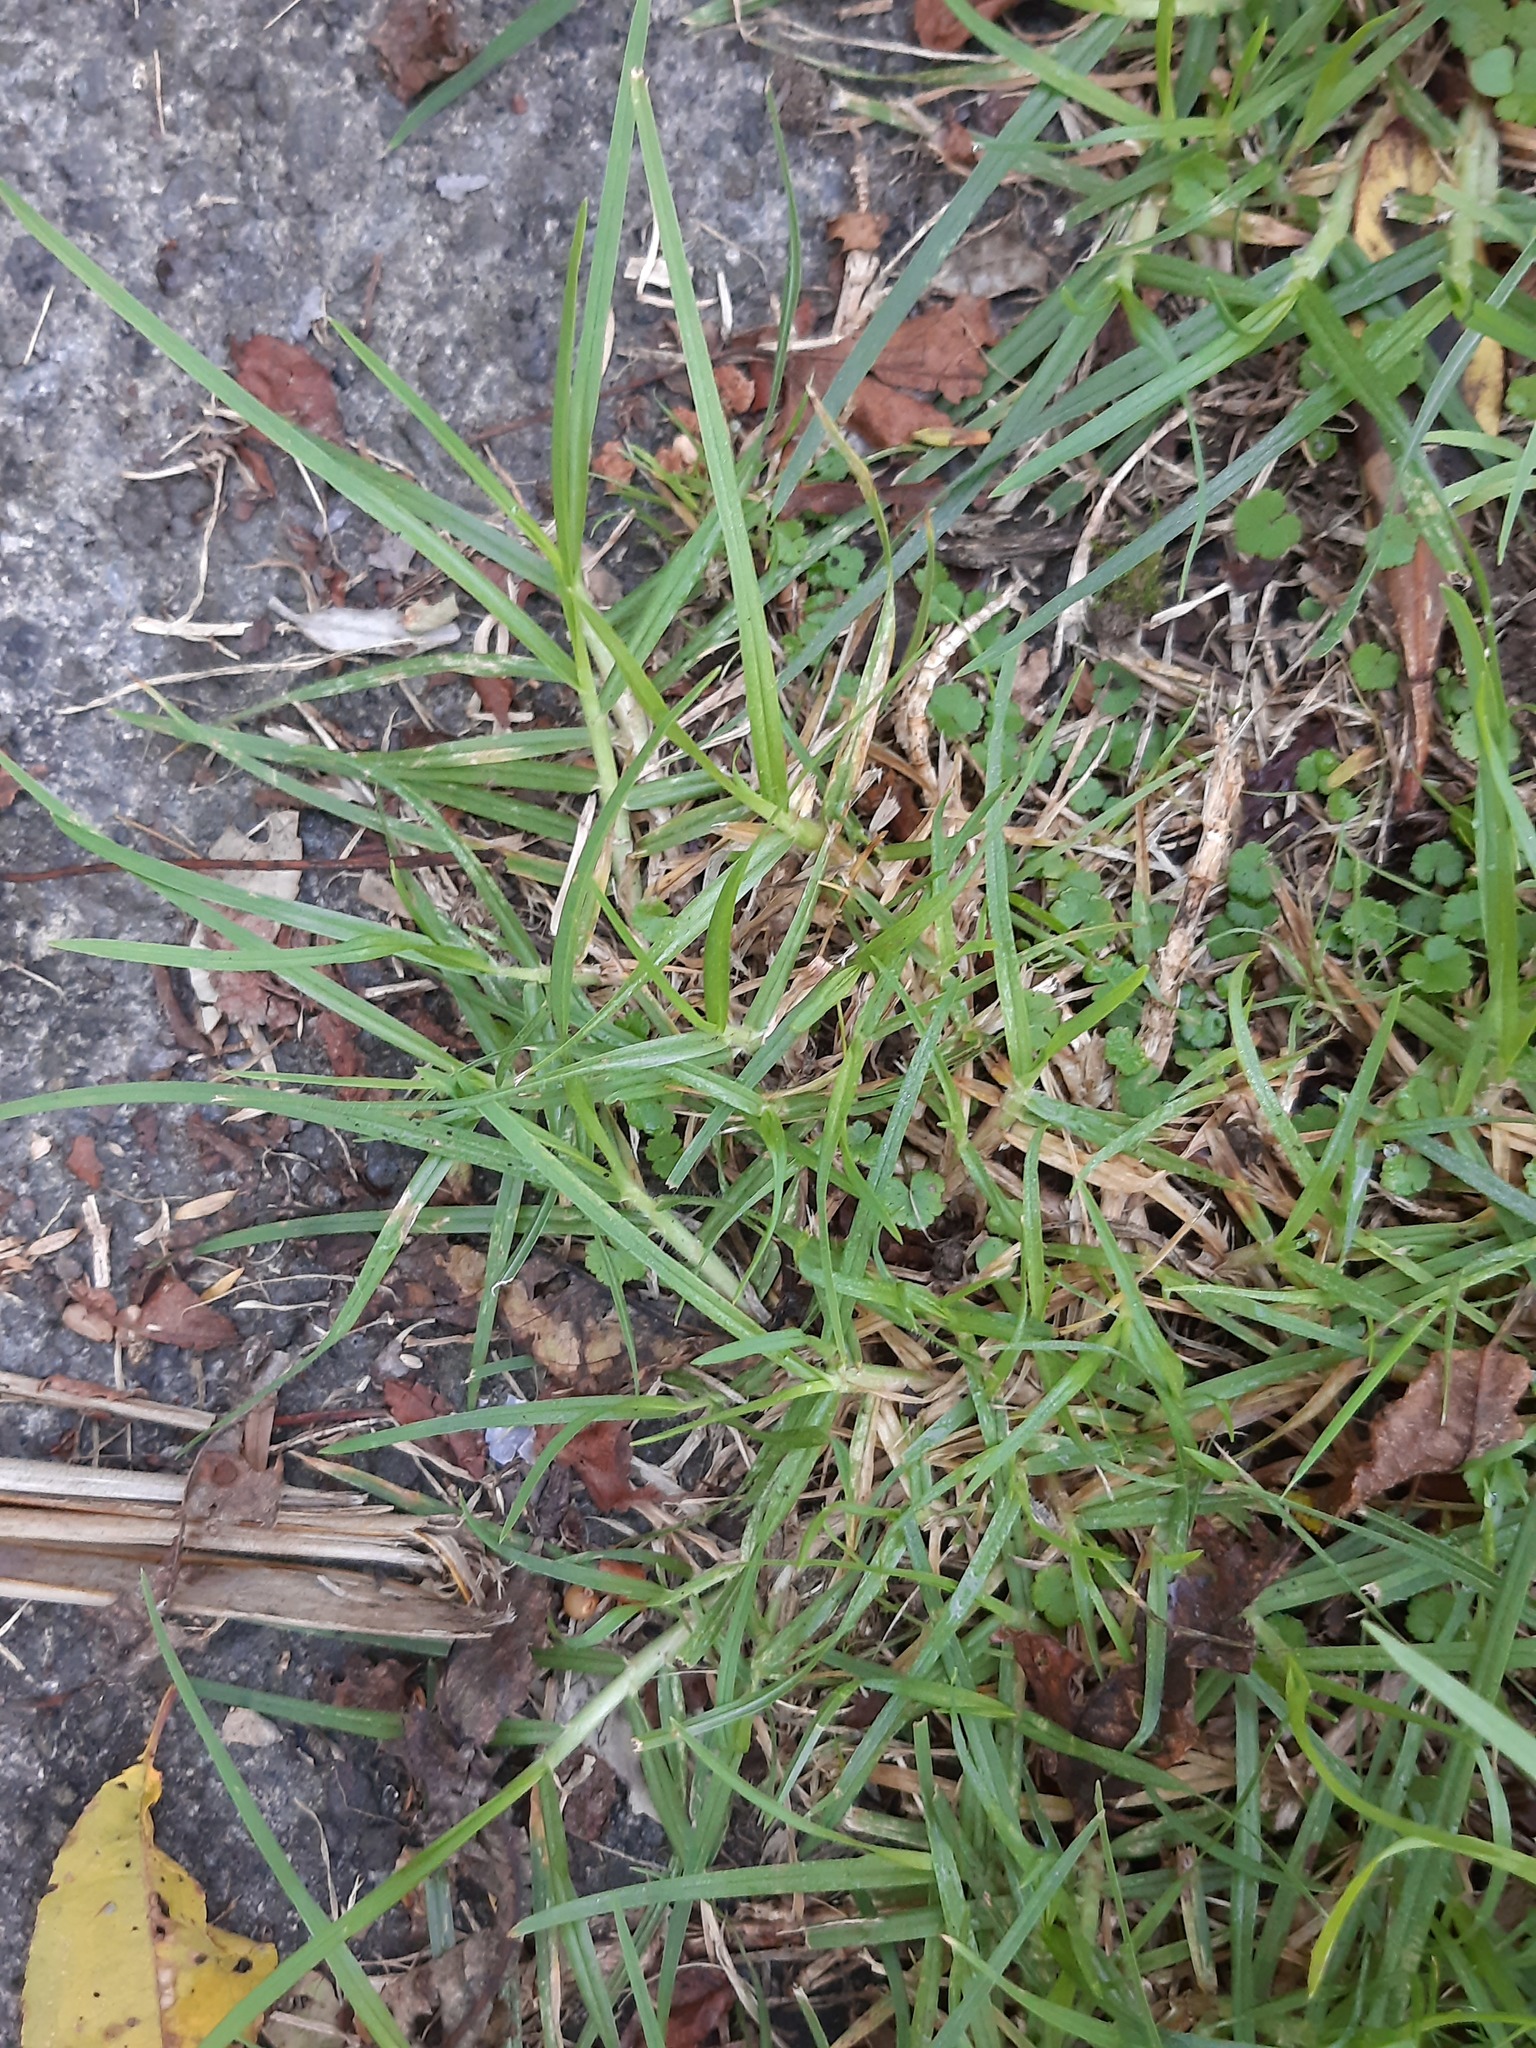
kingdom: Plantae
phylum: Tracheophyta
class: Liliopsida
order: Poales
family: Poaceae
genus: Cenchrus
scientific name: Cenchrus clandestinus
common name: Kikuyugrass
